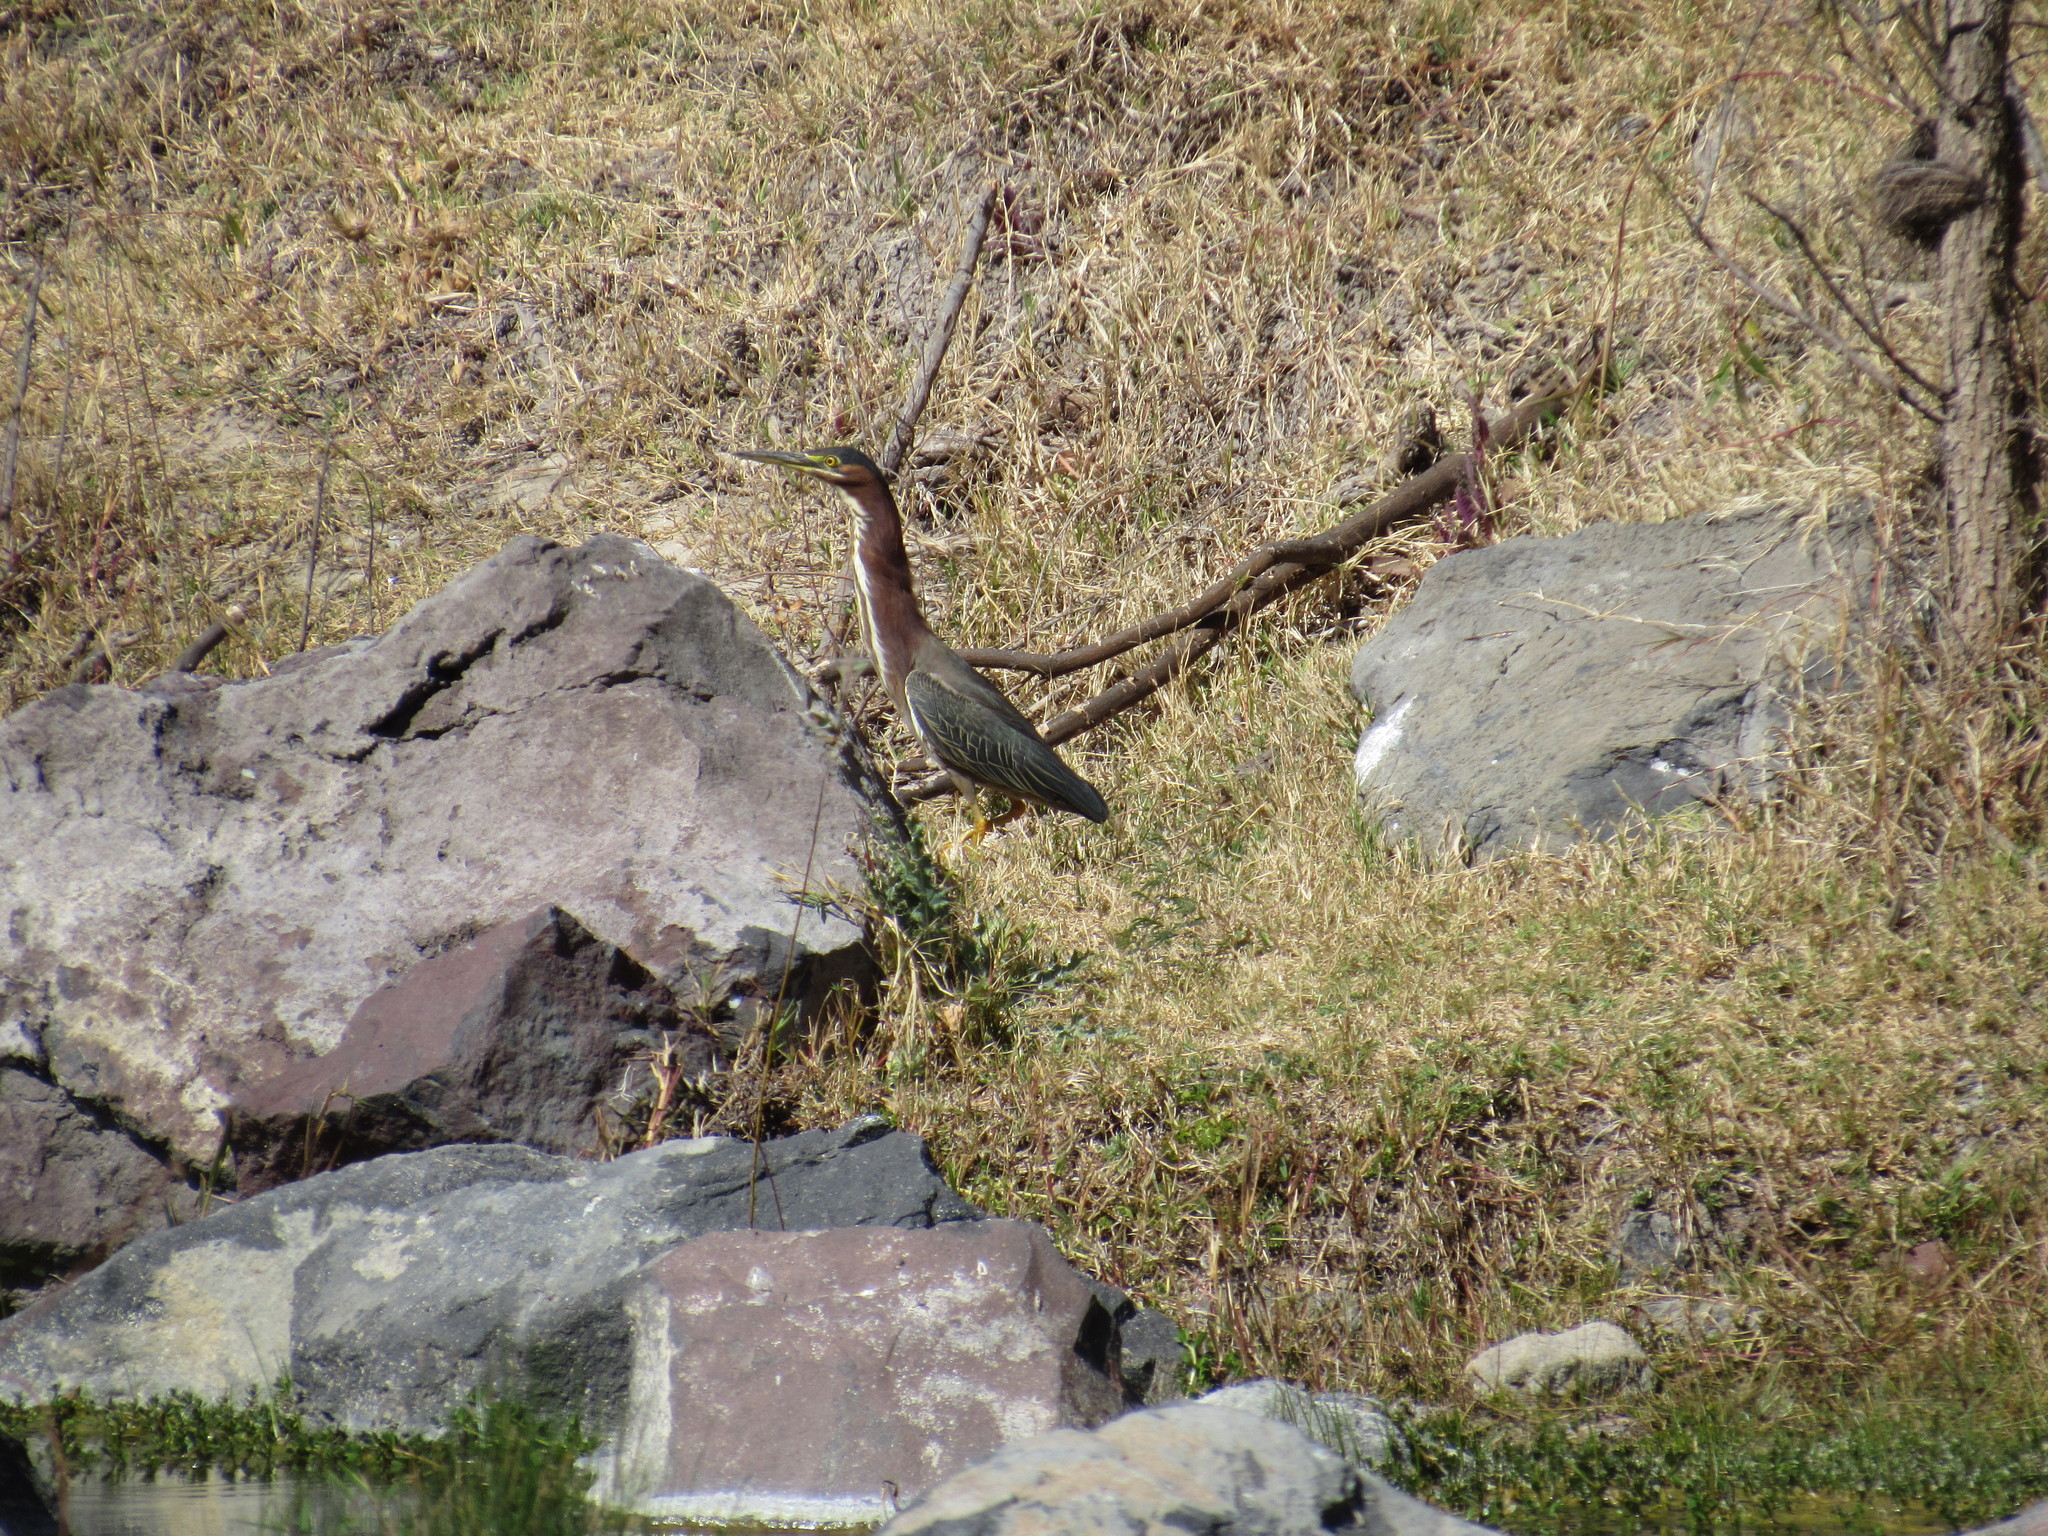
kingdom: Animalia
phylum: Chordata
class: Aves
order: Pelecaniformes
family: Ardeidae
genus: Butorides
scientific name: Butorides virescens
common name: Green heron
